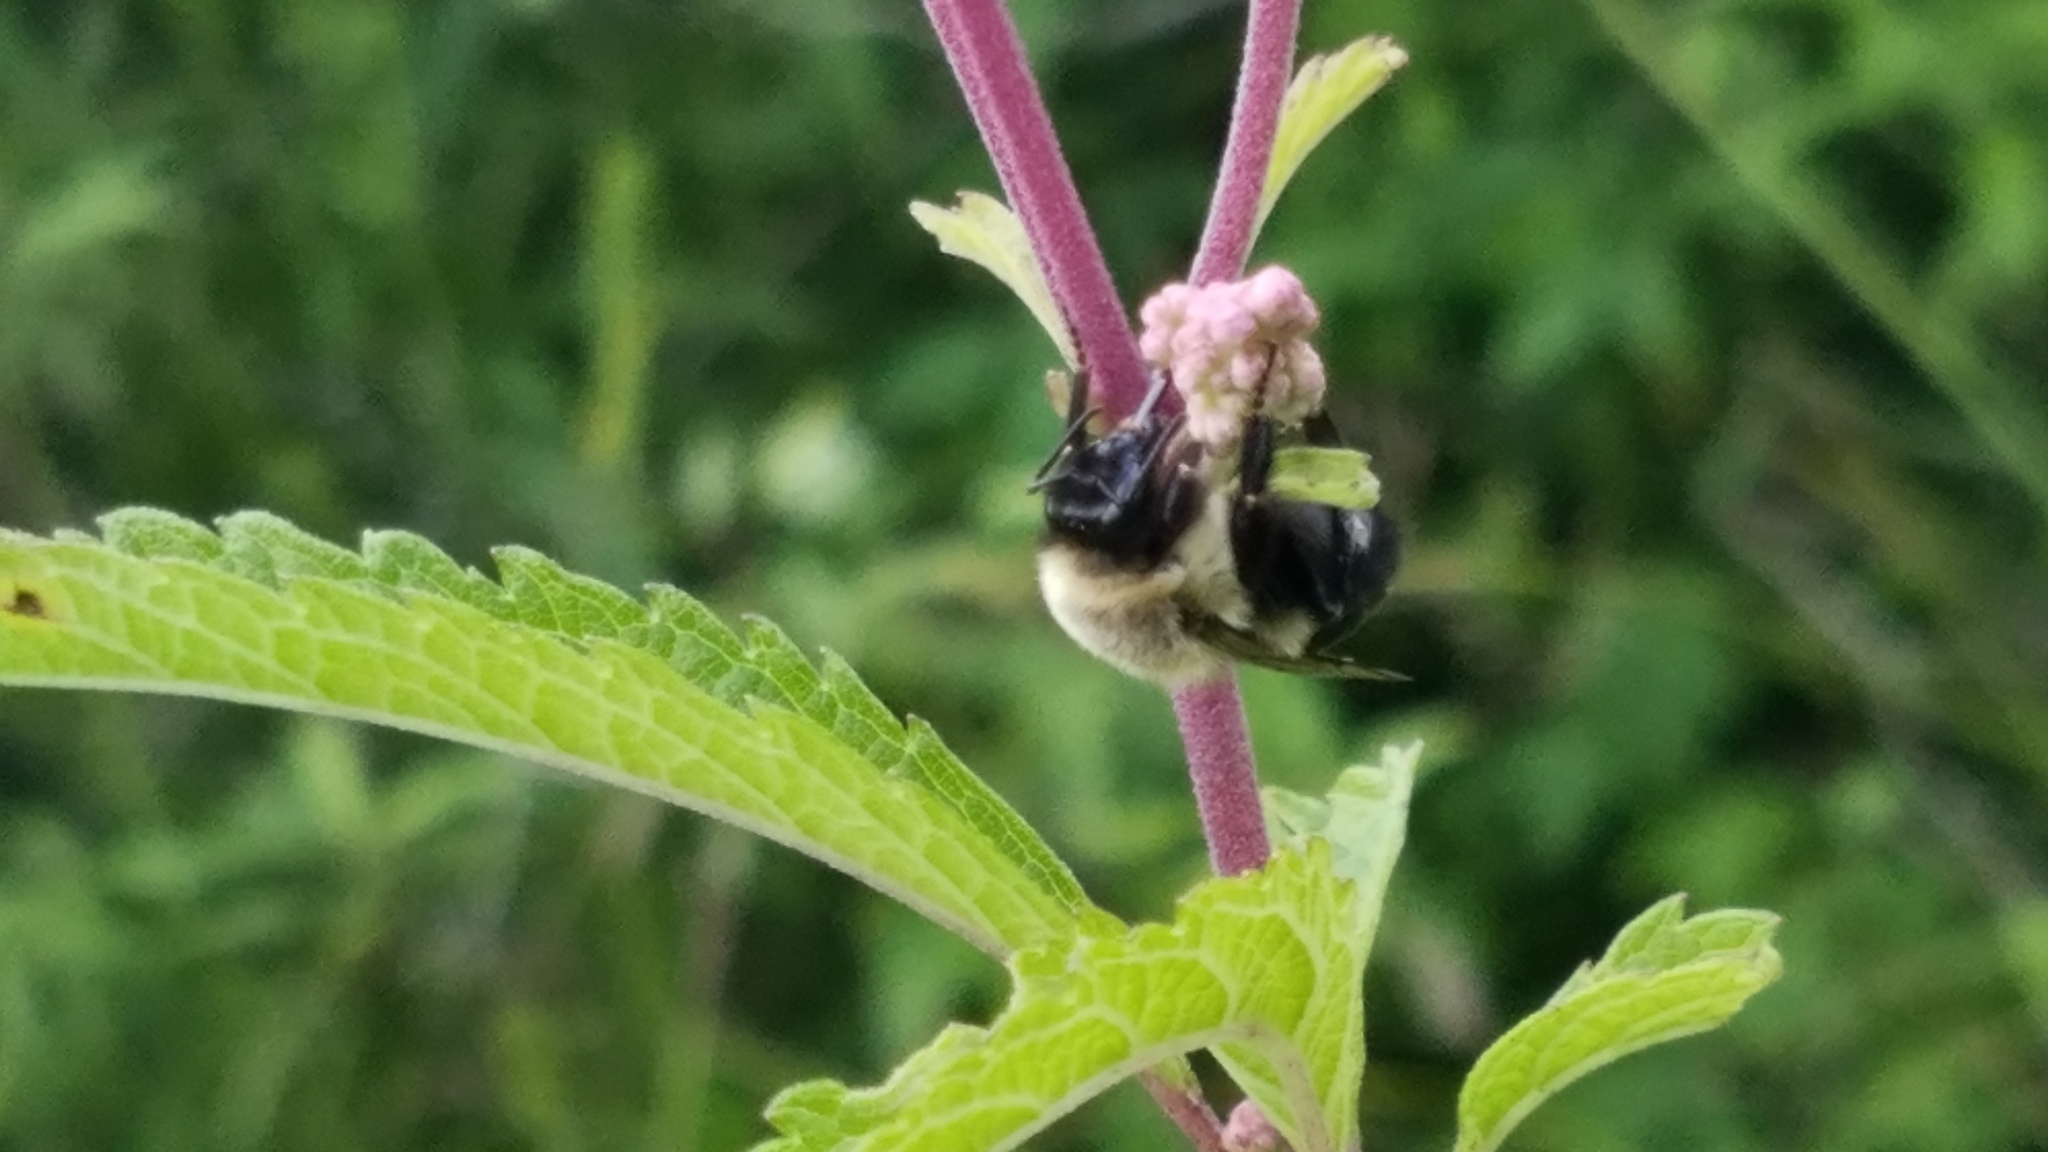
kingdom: Animalia
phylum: Arthropoda
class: Insecta
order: Hymenoptera
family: Apidae
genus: Bombus
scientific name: Bombus impatiens
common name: Common eastern bumble bee
